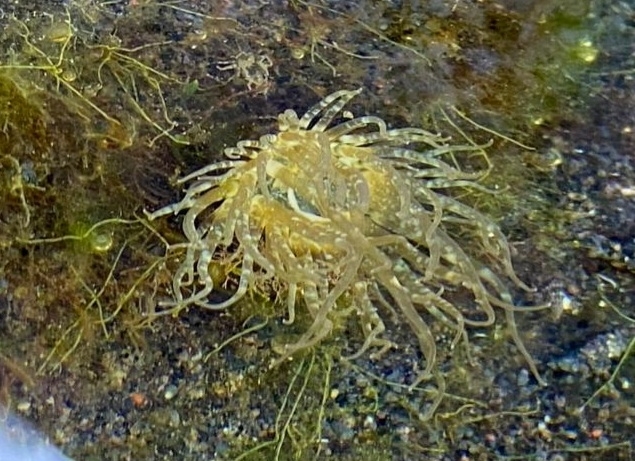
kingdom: Animalia
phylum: Cnidaria
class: Anthozoa
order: Actiniaria
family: Aiptasiidae
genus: Exaiptasia
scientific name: Exaiptasia diaphana
